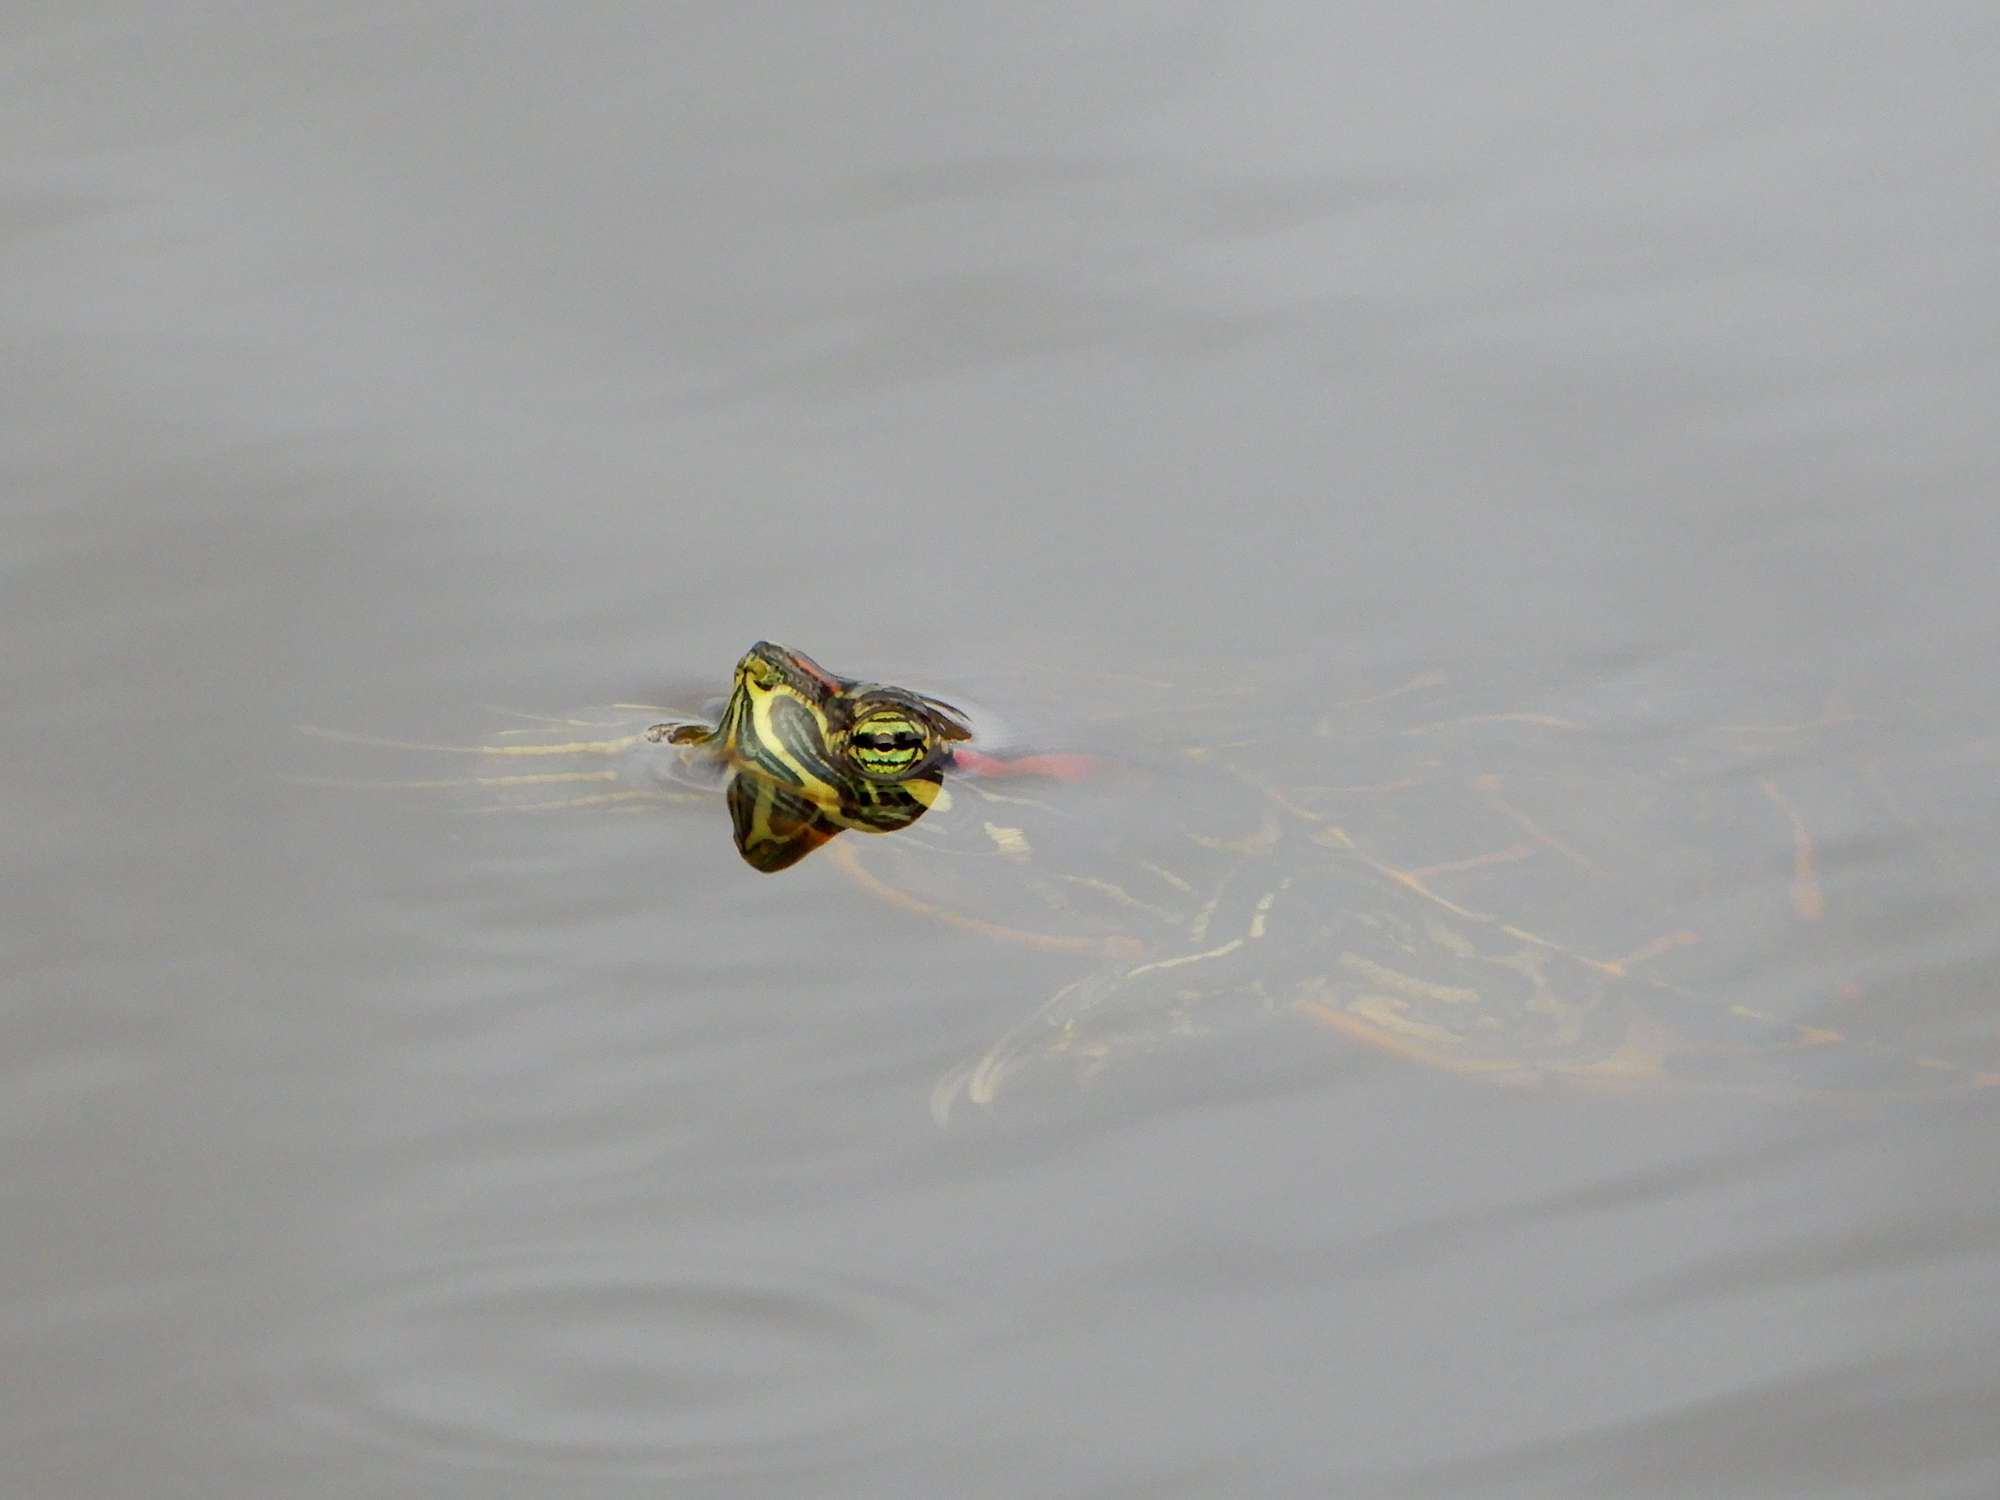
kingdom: Animalia
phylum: Chordata
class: Testudines
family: Emydidae
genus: Trachemys
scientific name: Trachemys scripta
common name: Slider
